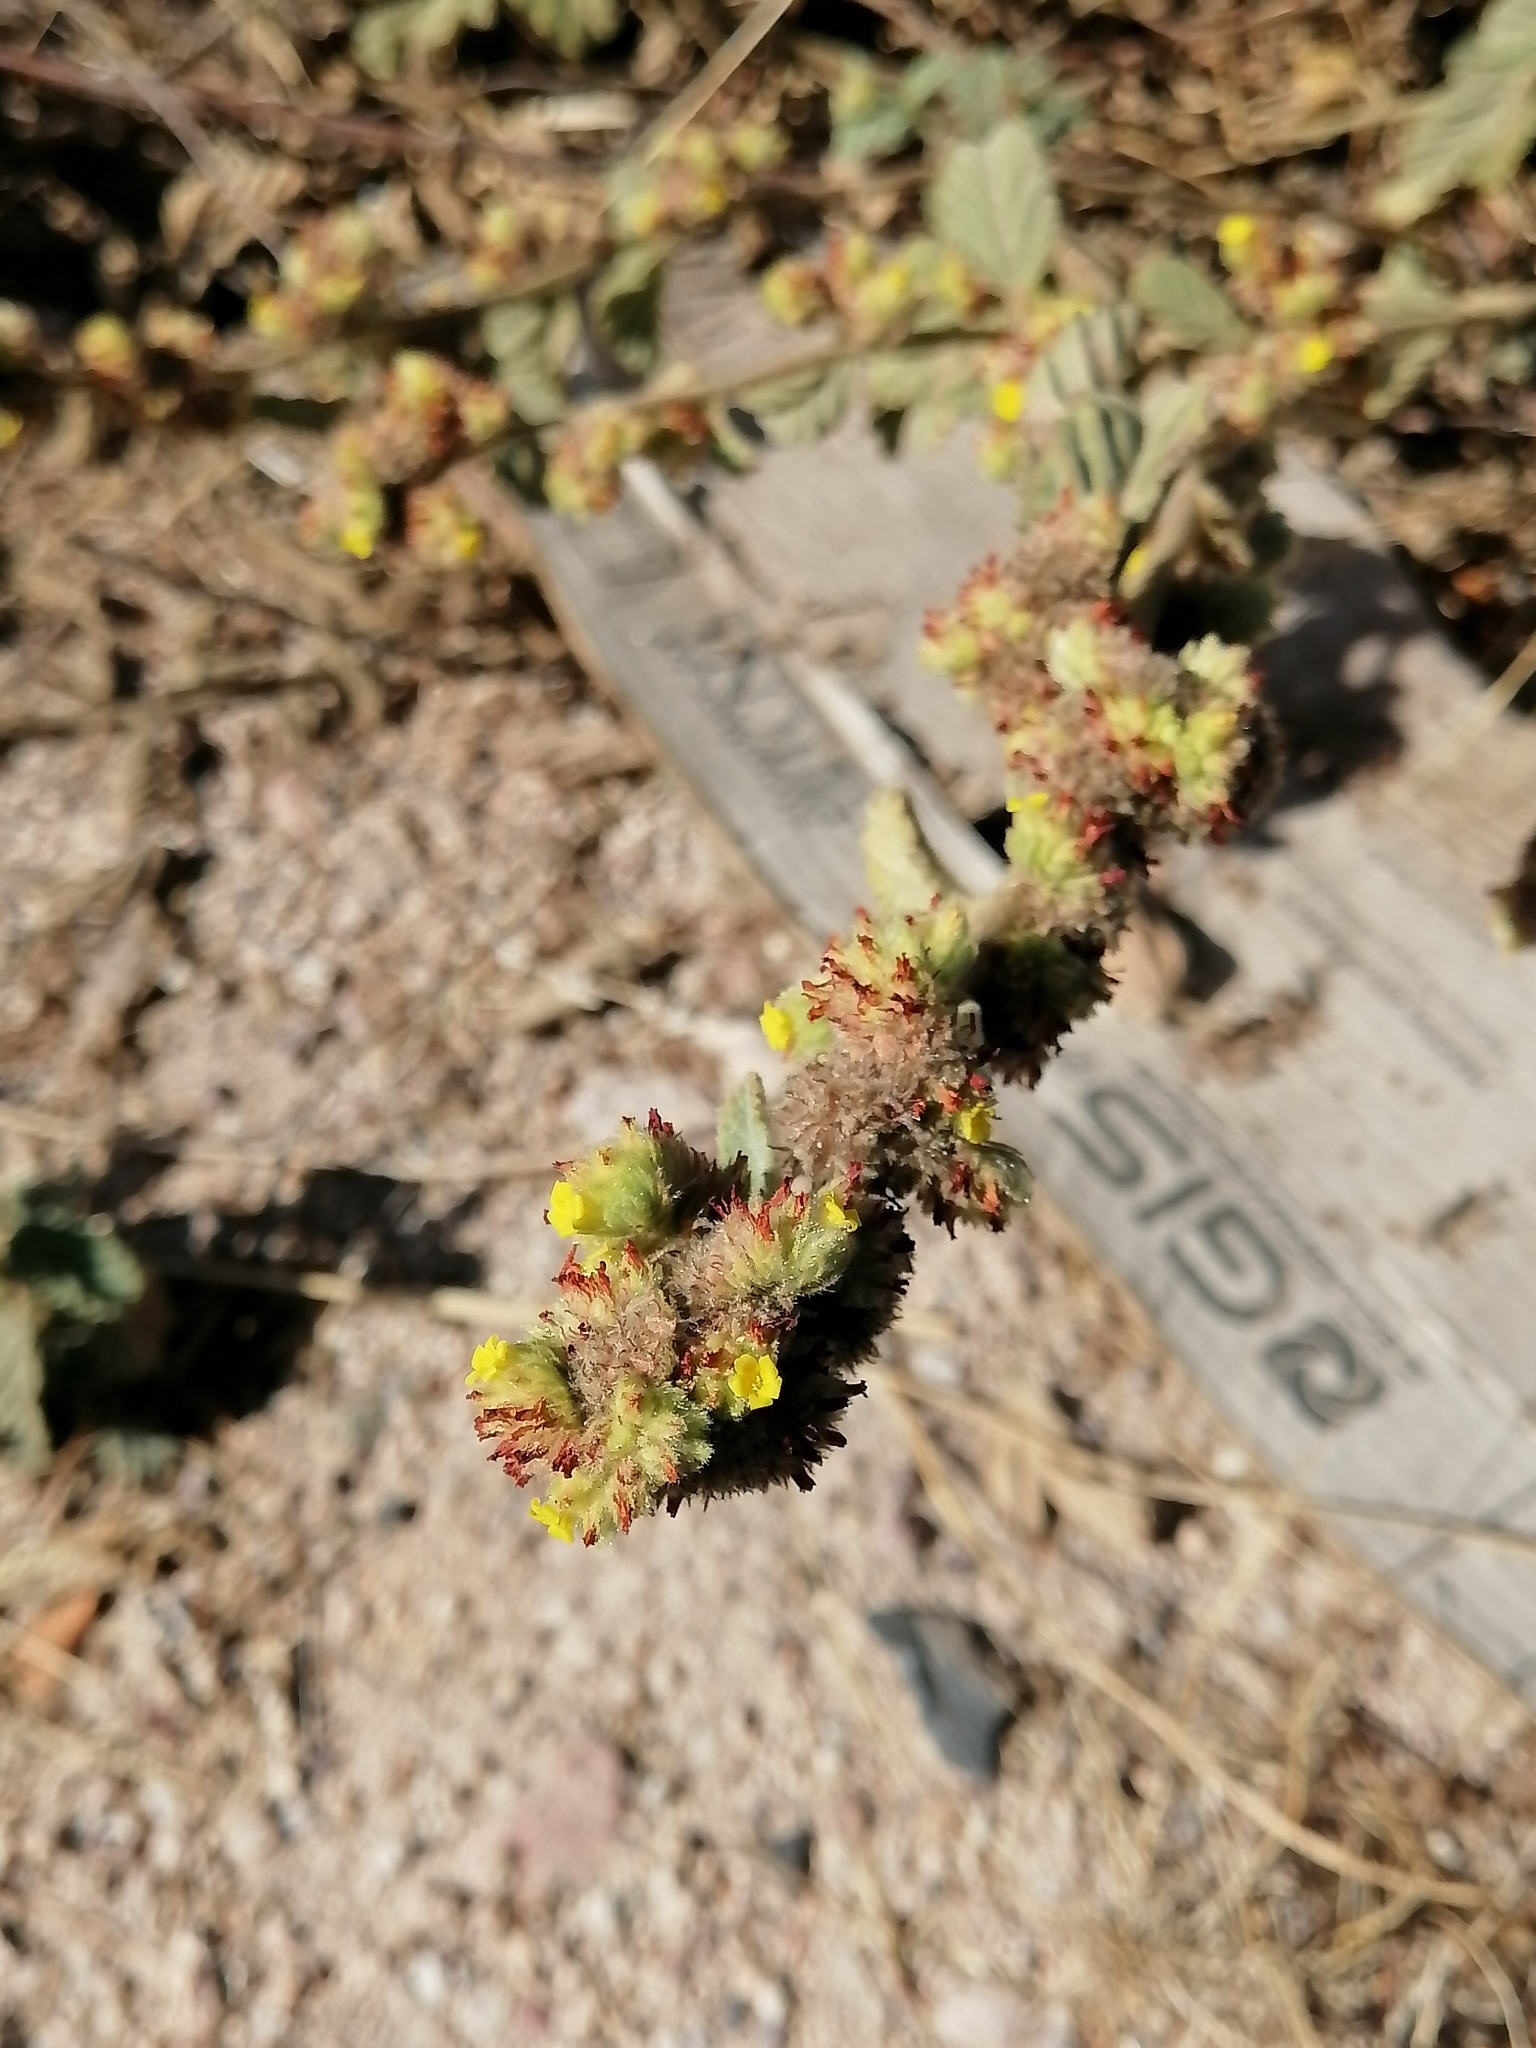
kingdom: Plantae
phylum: Tracheophyta
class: Magnoliopsida
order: Malvales
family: Malvaceae
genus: Waltheria
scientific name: Waltheria indica
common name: Leather-coat
